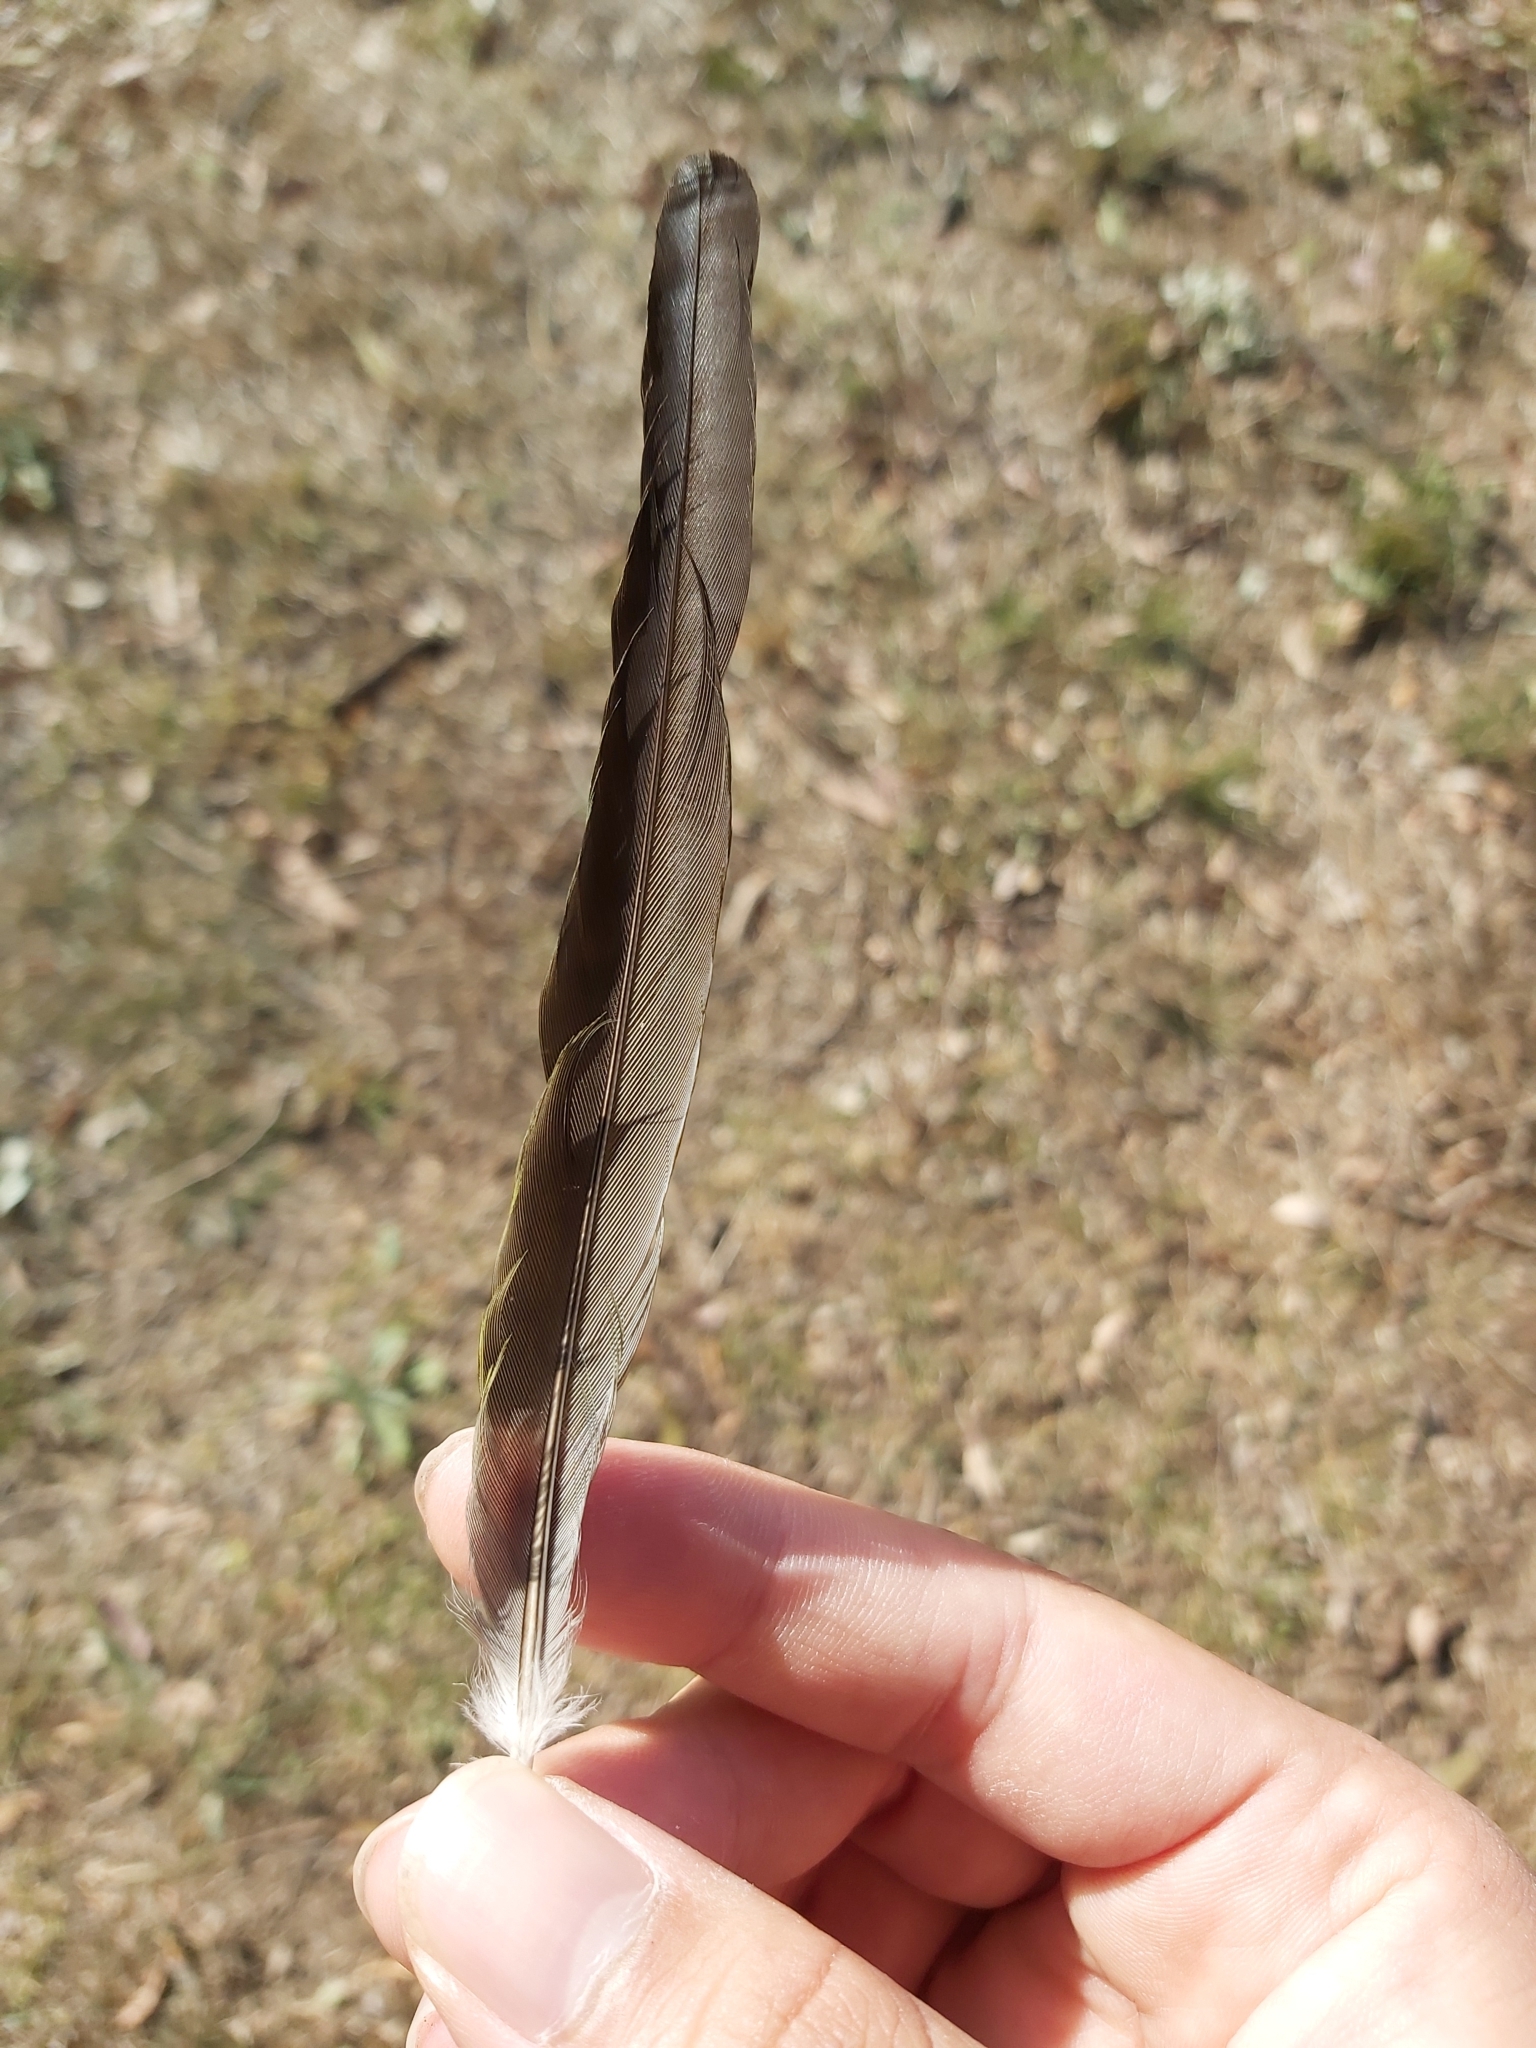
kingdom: Animalia
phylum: Chordata
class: Aves
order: Psittaciformes
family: Psittacidae
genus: Psephotus
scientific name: Psephotus haematonotus
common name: Red-rumped parrot
